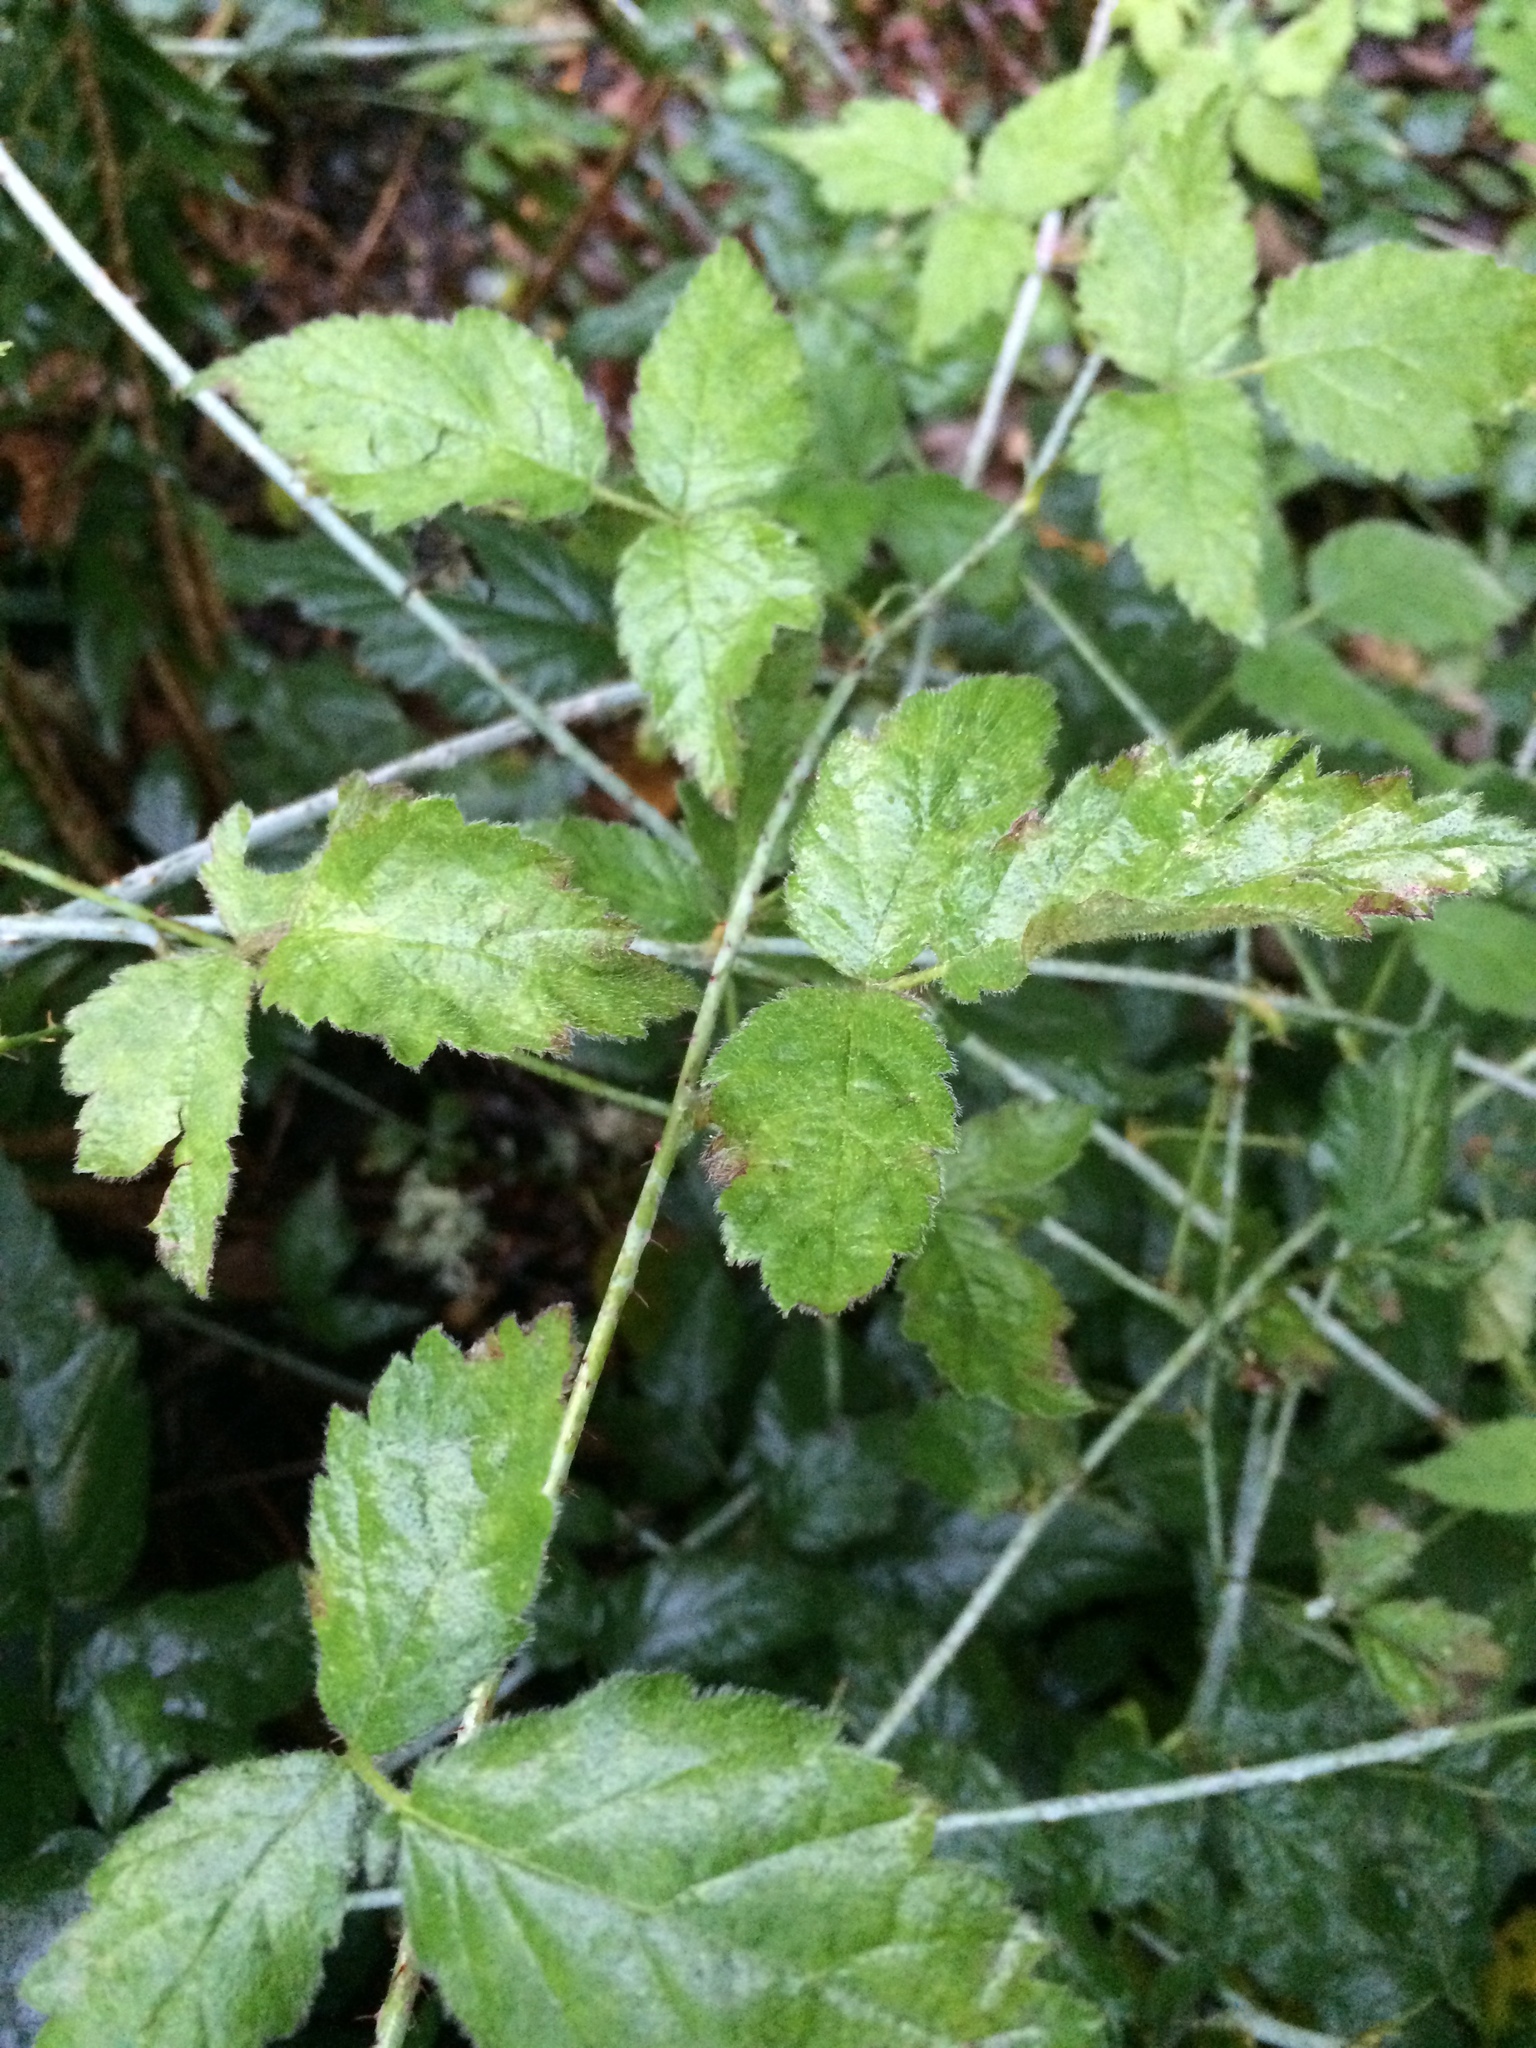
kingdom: Plantae
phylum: Tracheophyta
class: Magnoliopsida
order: Rosales
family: Rosaceae
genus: Rubus
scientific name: Rubus ursinus
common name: Pacific blackberry
